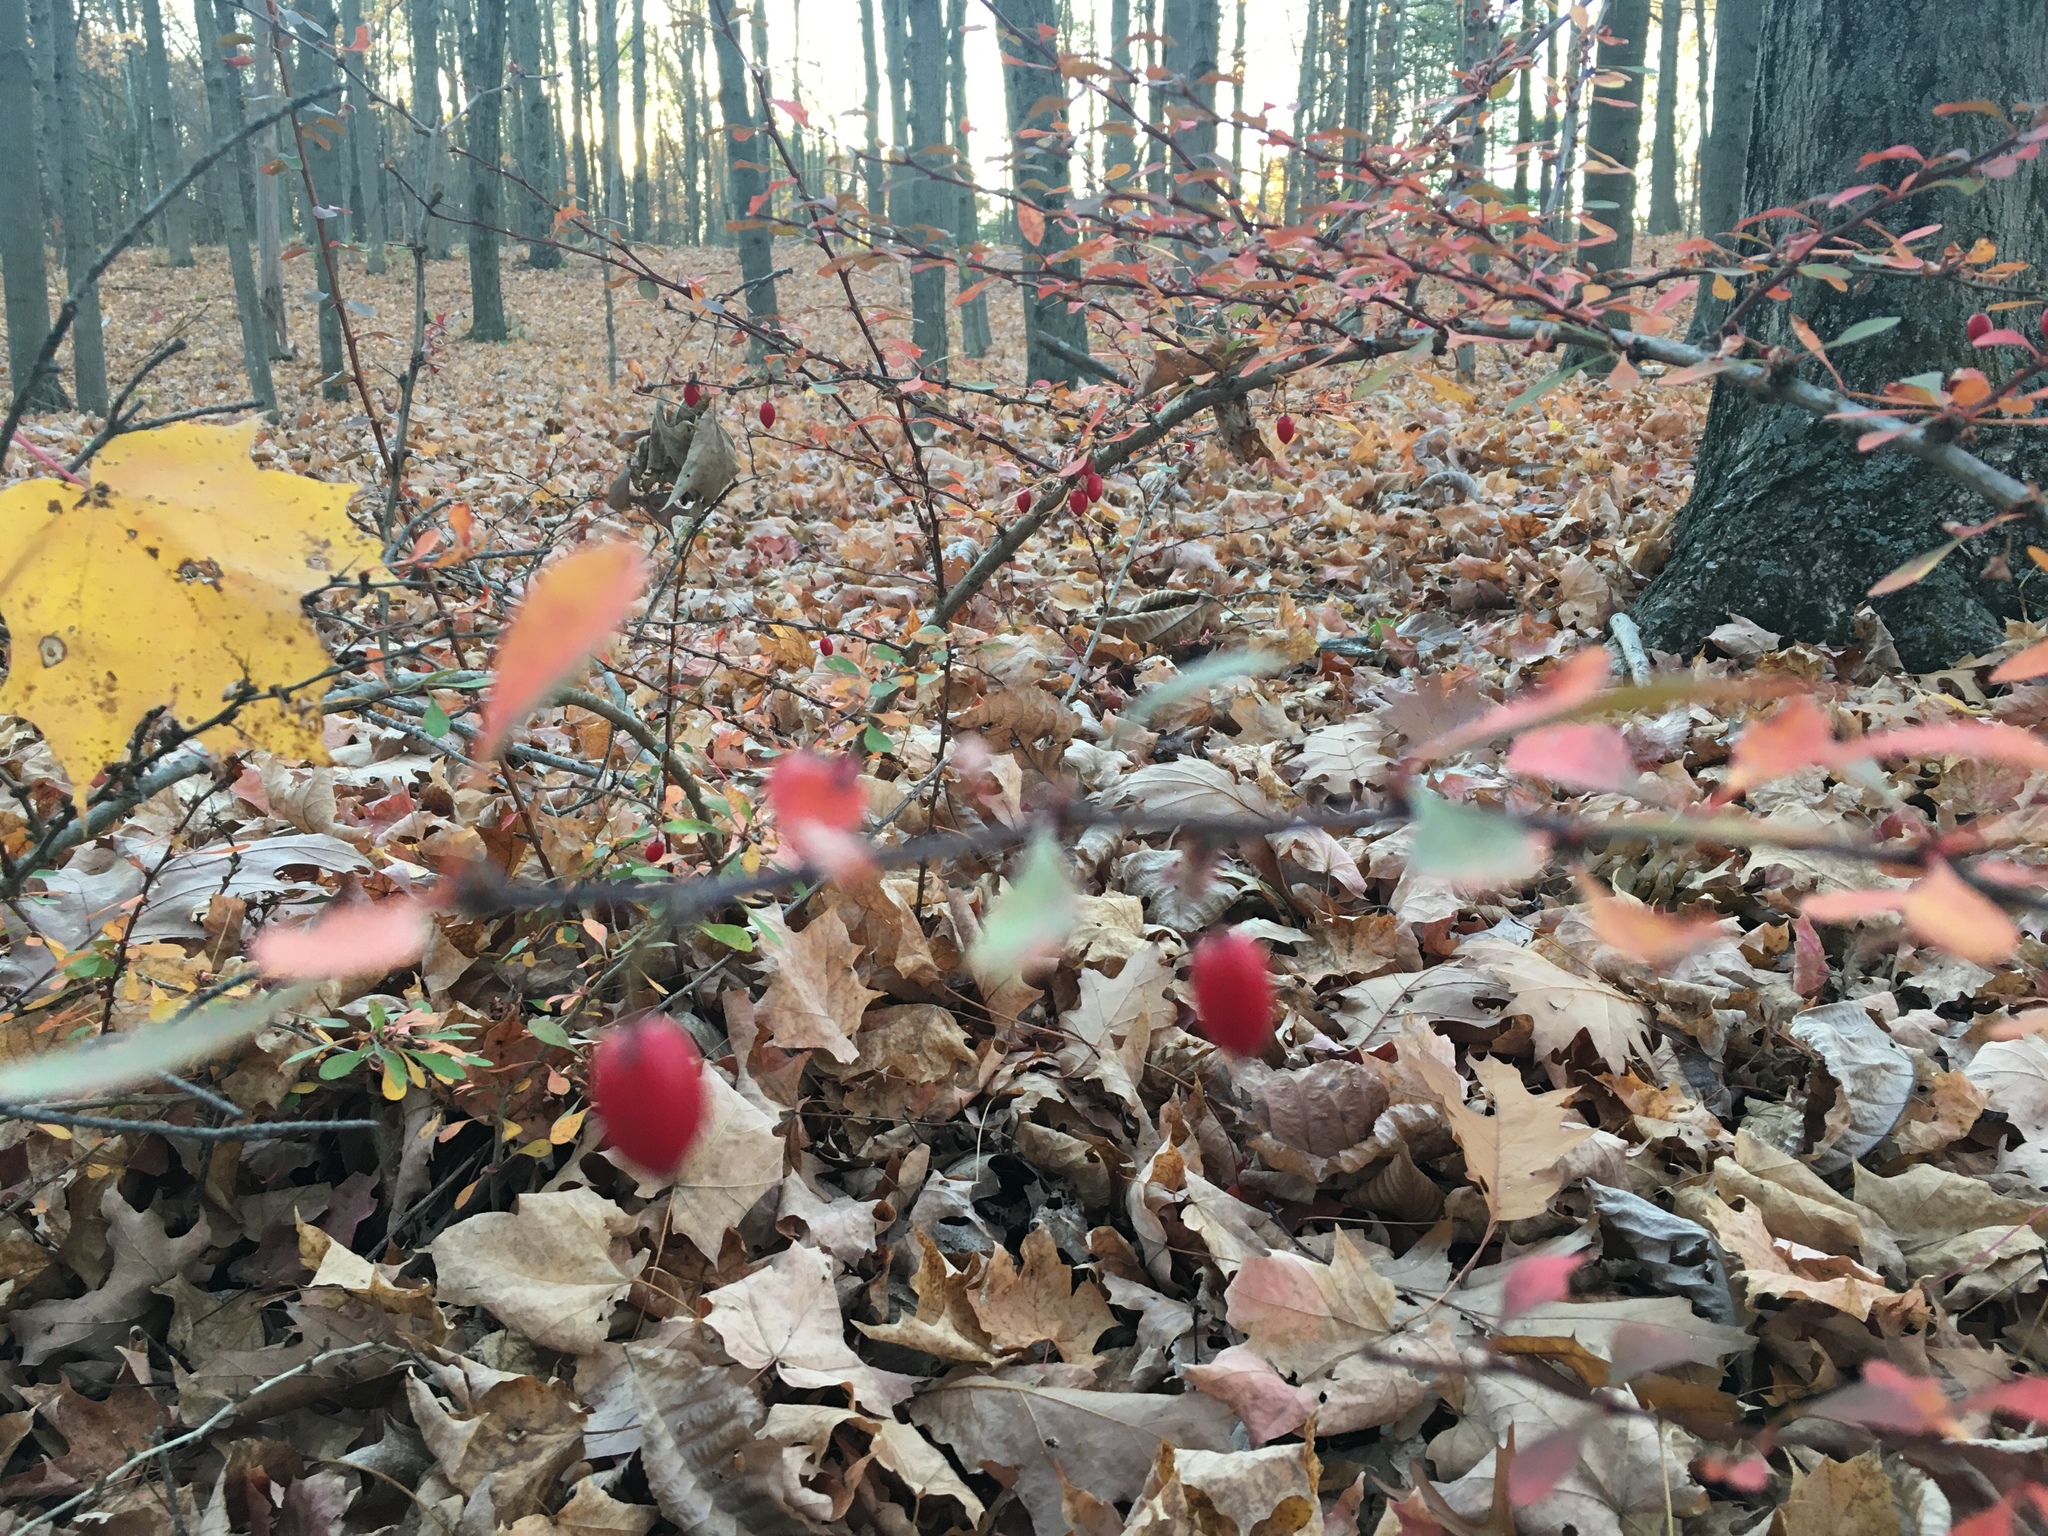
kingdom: Plantae
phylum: Tracheophyta
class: Magnoliopsida
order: Ranunculales
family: Berberidaceae
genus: Berberis
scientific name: Berberis thunbergii
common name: Japanese barberry
